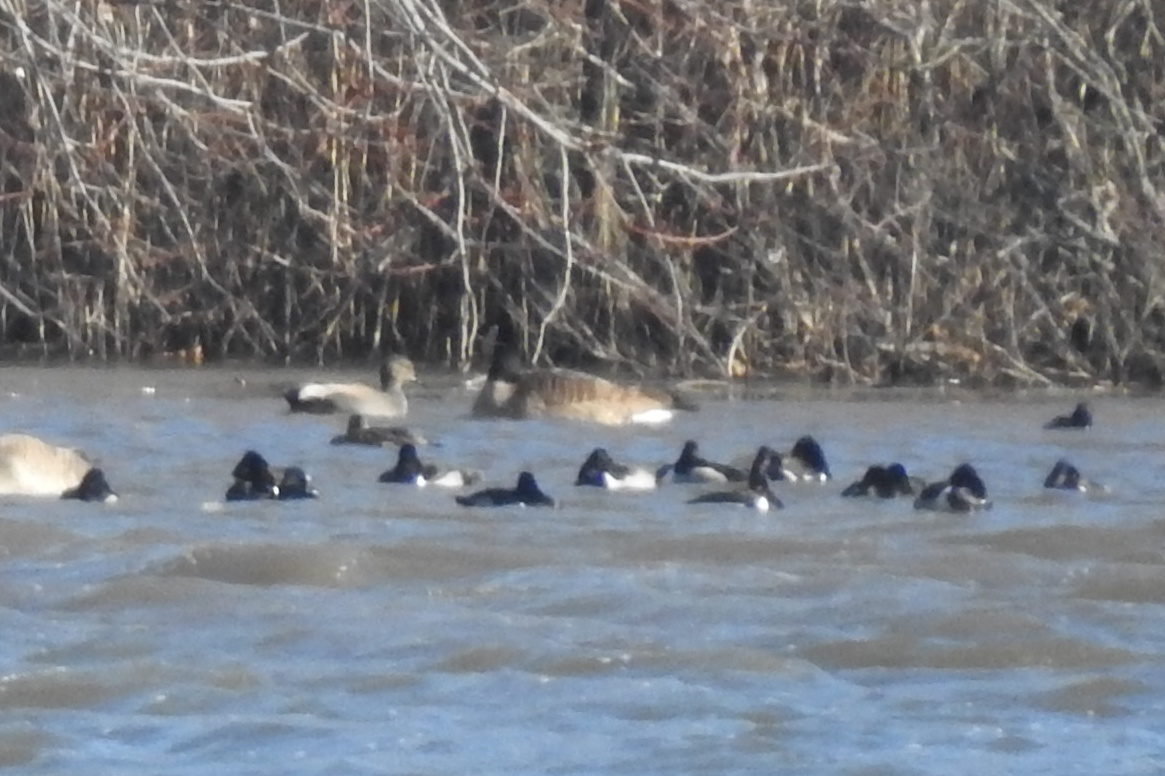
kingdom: Animalia
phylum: Chordata
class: Aves
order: Anseriformes
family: Anatidae
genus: Aythya
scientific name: Aythya collaris
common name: Ring-necked duck
